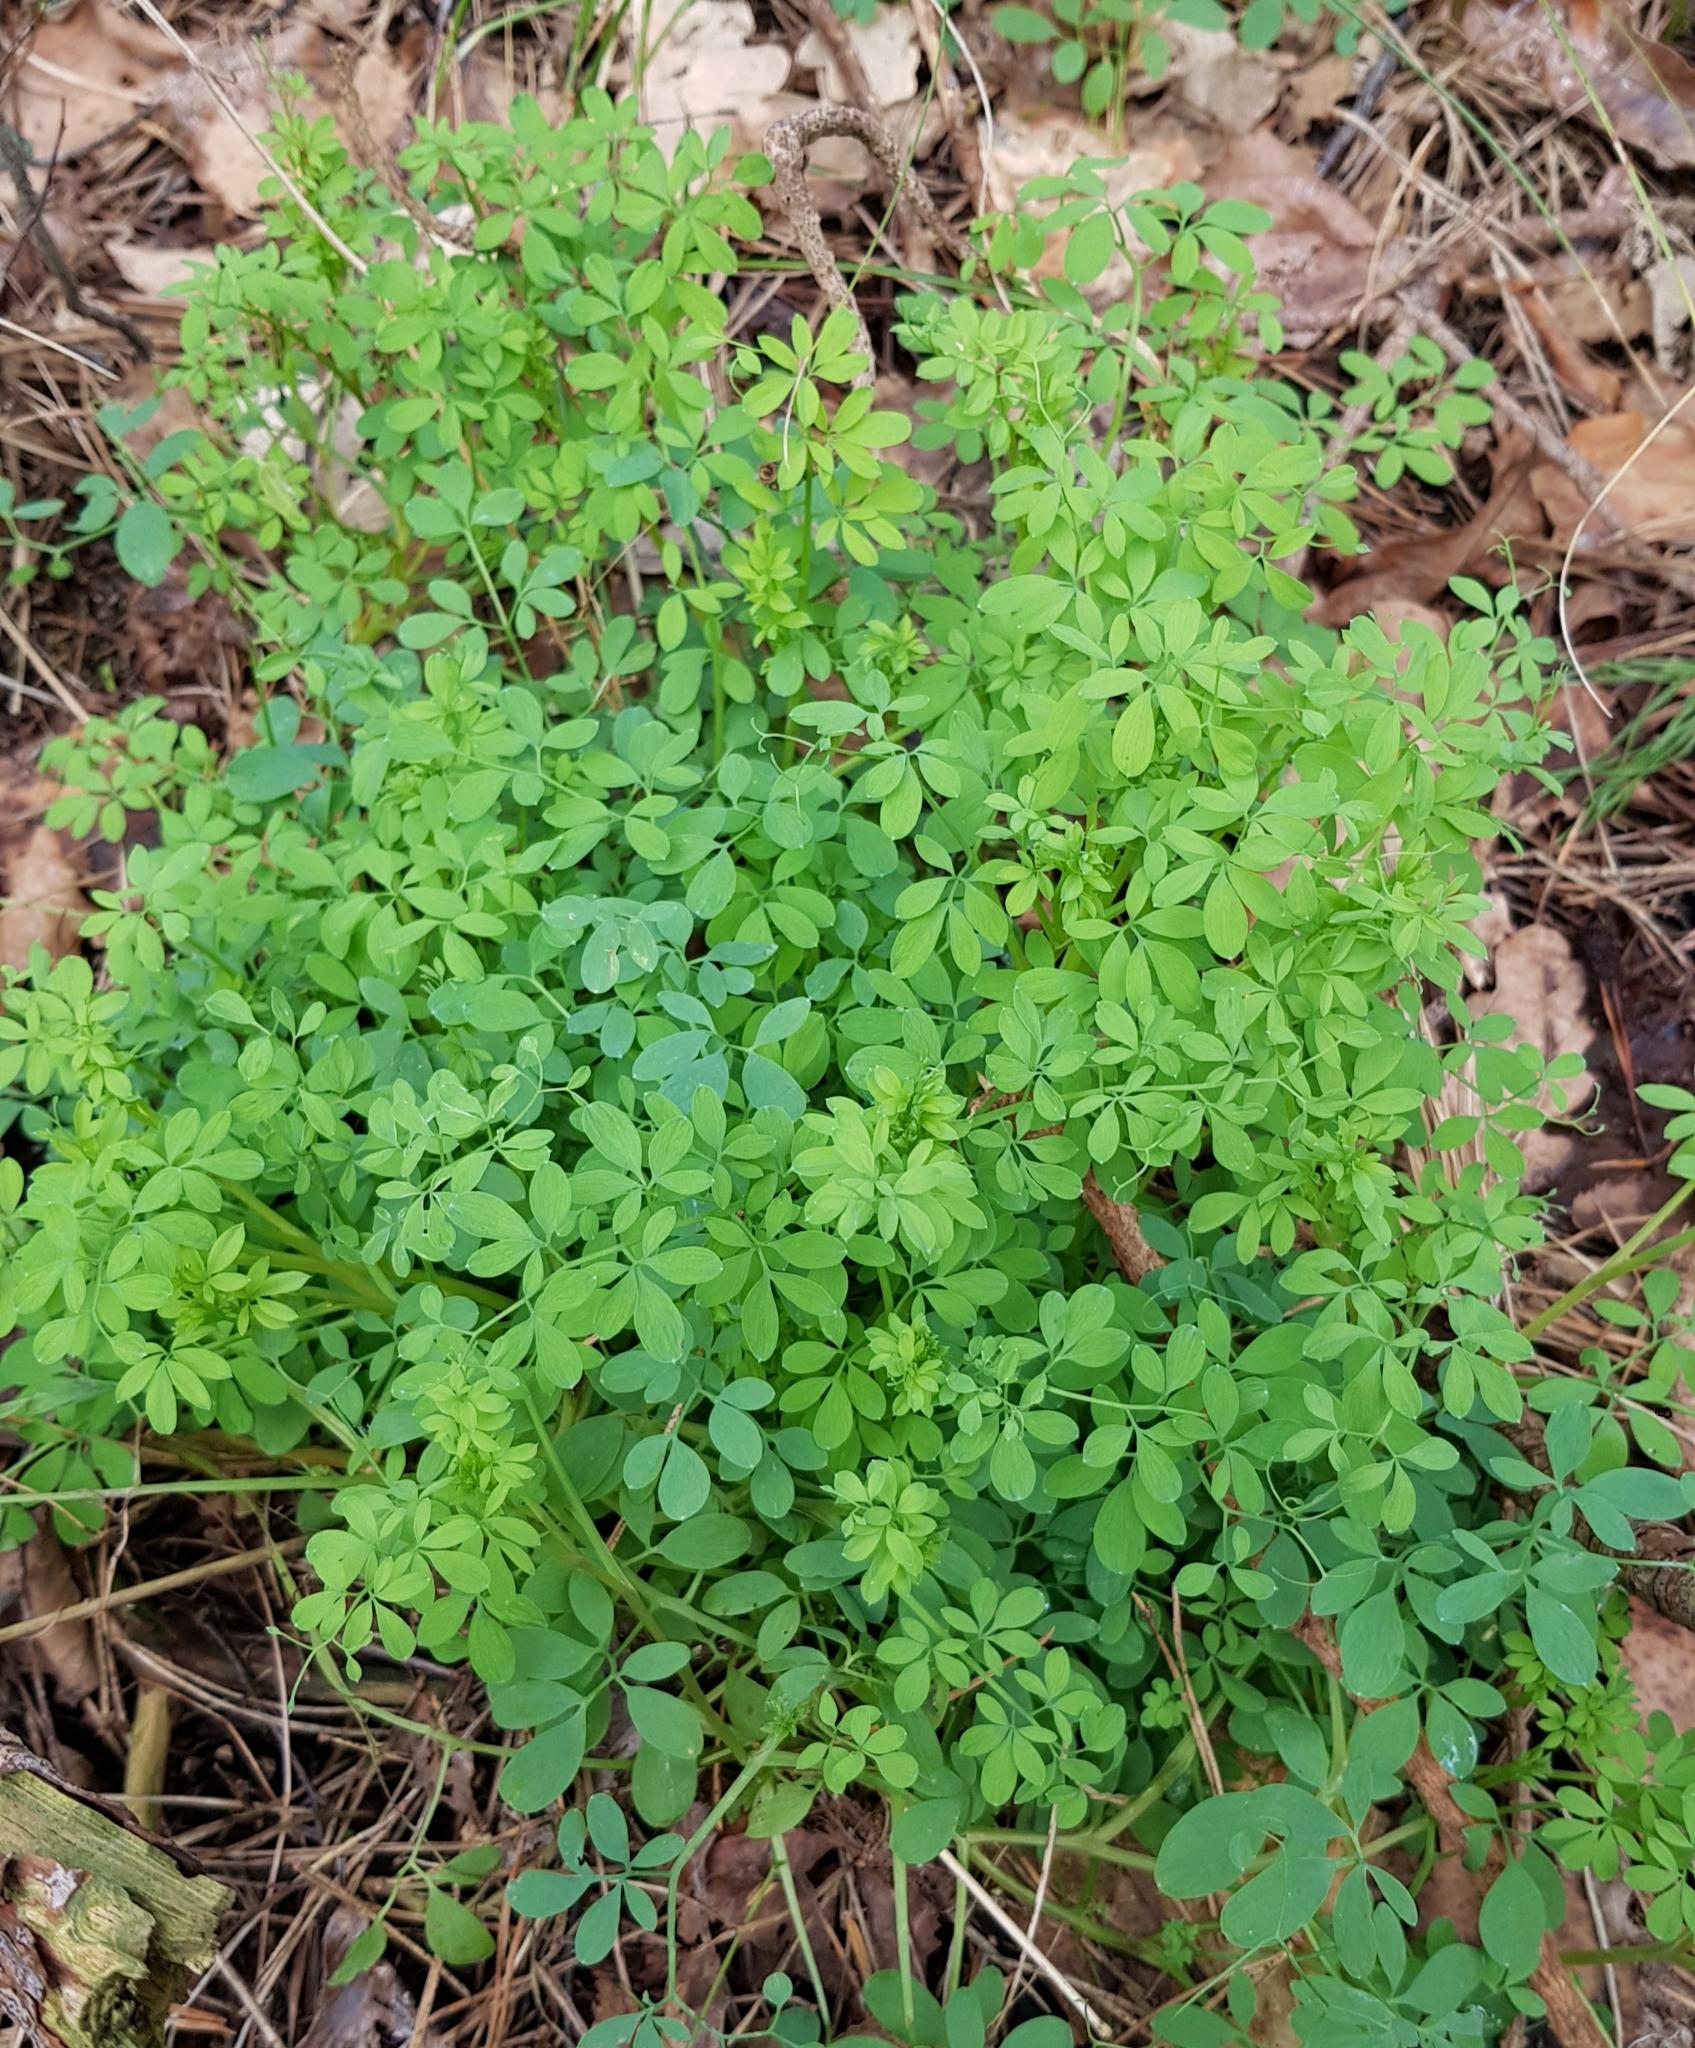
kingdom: Plantae
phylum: Tracheophyta
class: Magnoliopsida
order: Ranunculales
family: Papaveraceae
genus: Ceratocapnos
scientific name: Ceratocapnos claviculata
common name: Climbing corydalis
